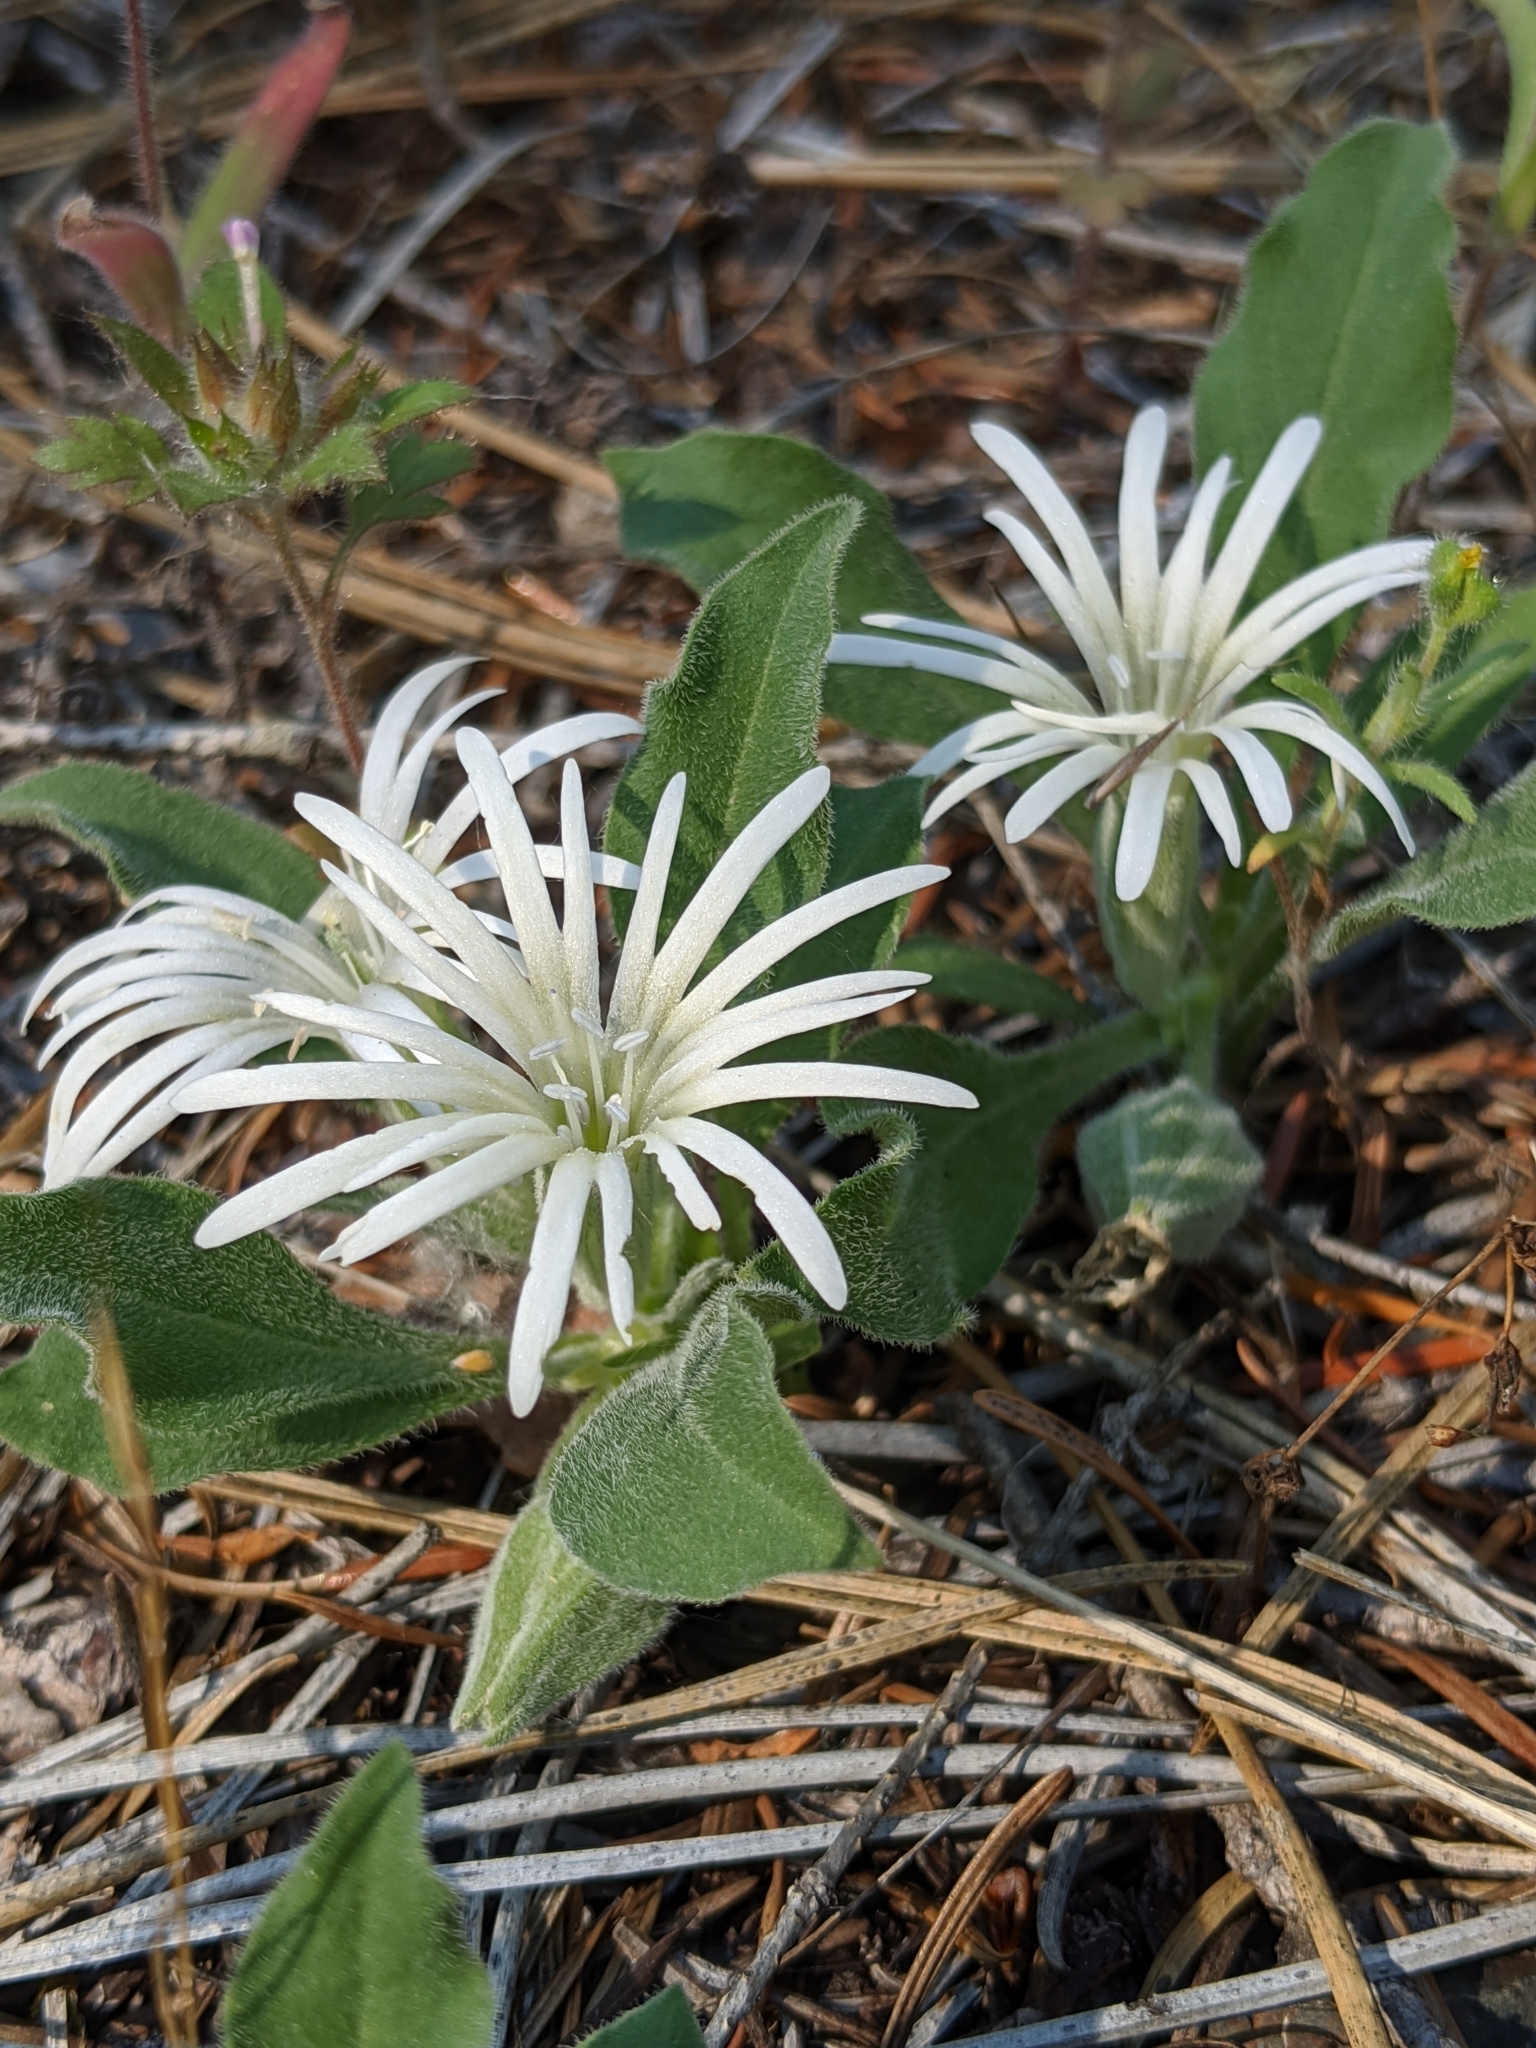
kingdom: Plantae
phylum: Tracheophyta
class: Magnoliopsida
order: Caryophyllales
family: Caryophyllaceae
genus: Silene
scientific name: Silene nelsonii
